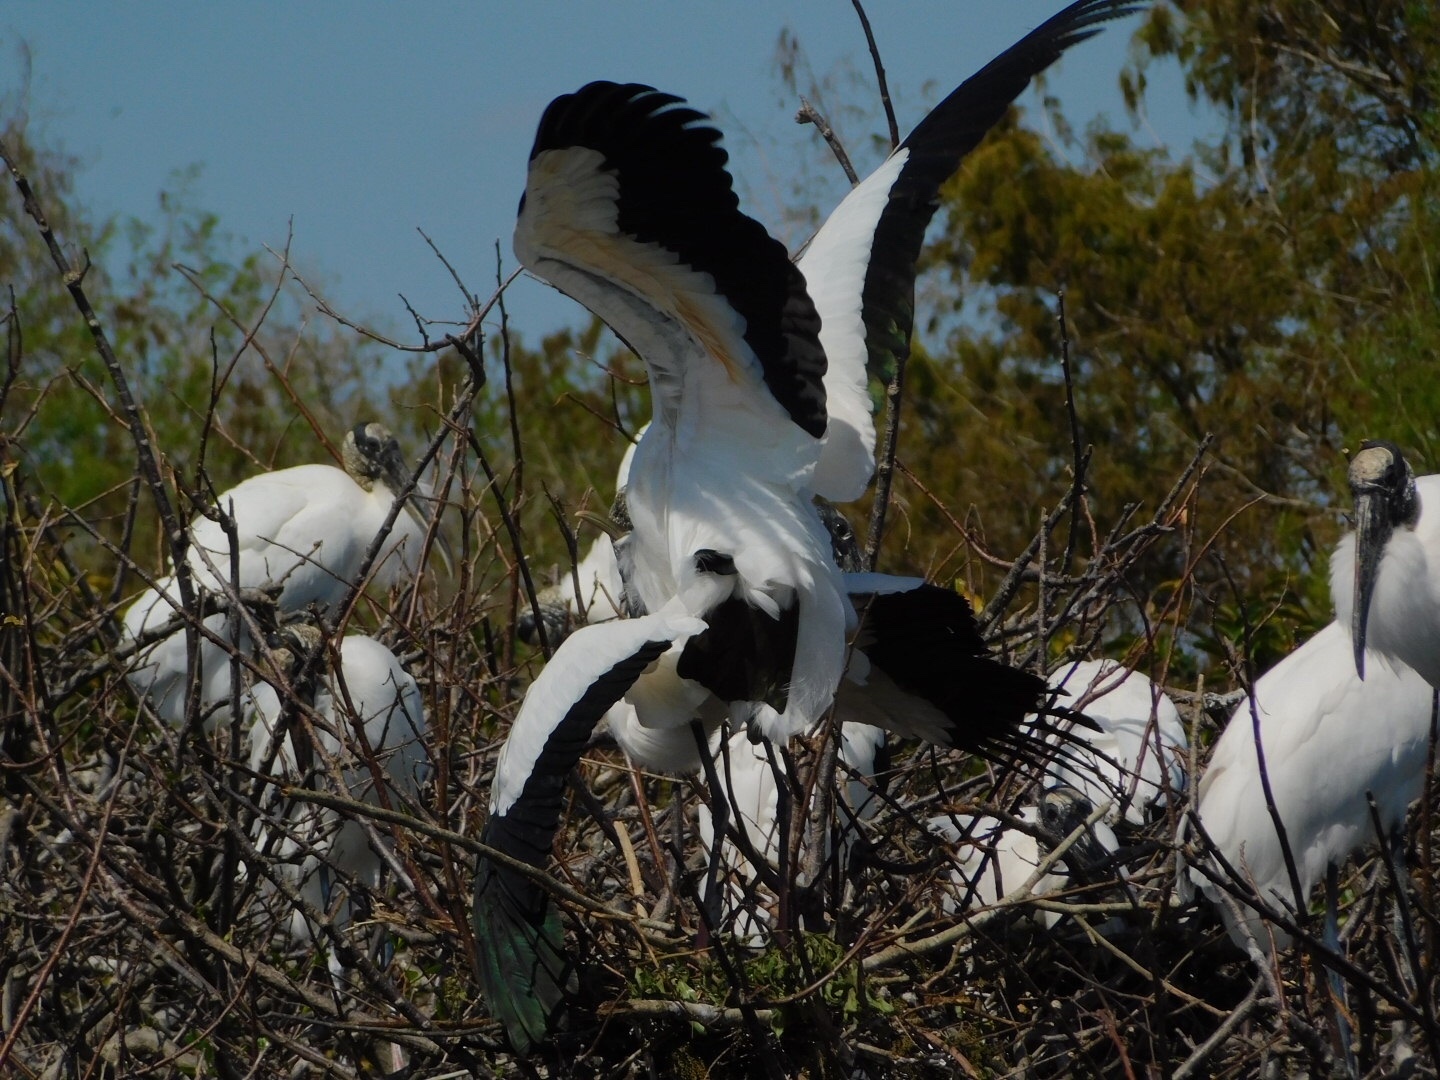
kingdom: Animalia
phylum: Chordata
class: Aves
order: Ciconiiformes
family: Ciconiidae
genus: Mycteria
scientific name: Mycteria americana
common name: Wood stork
